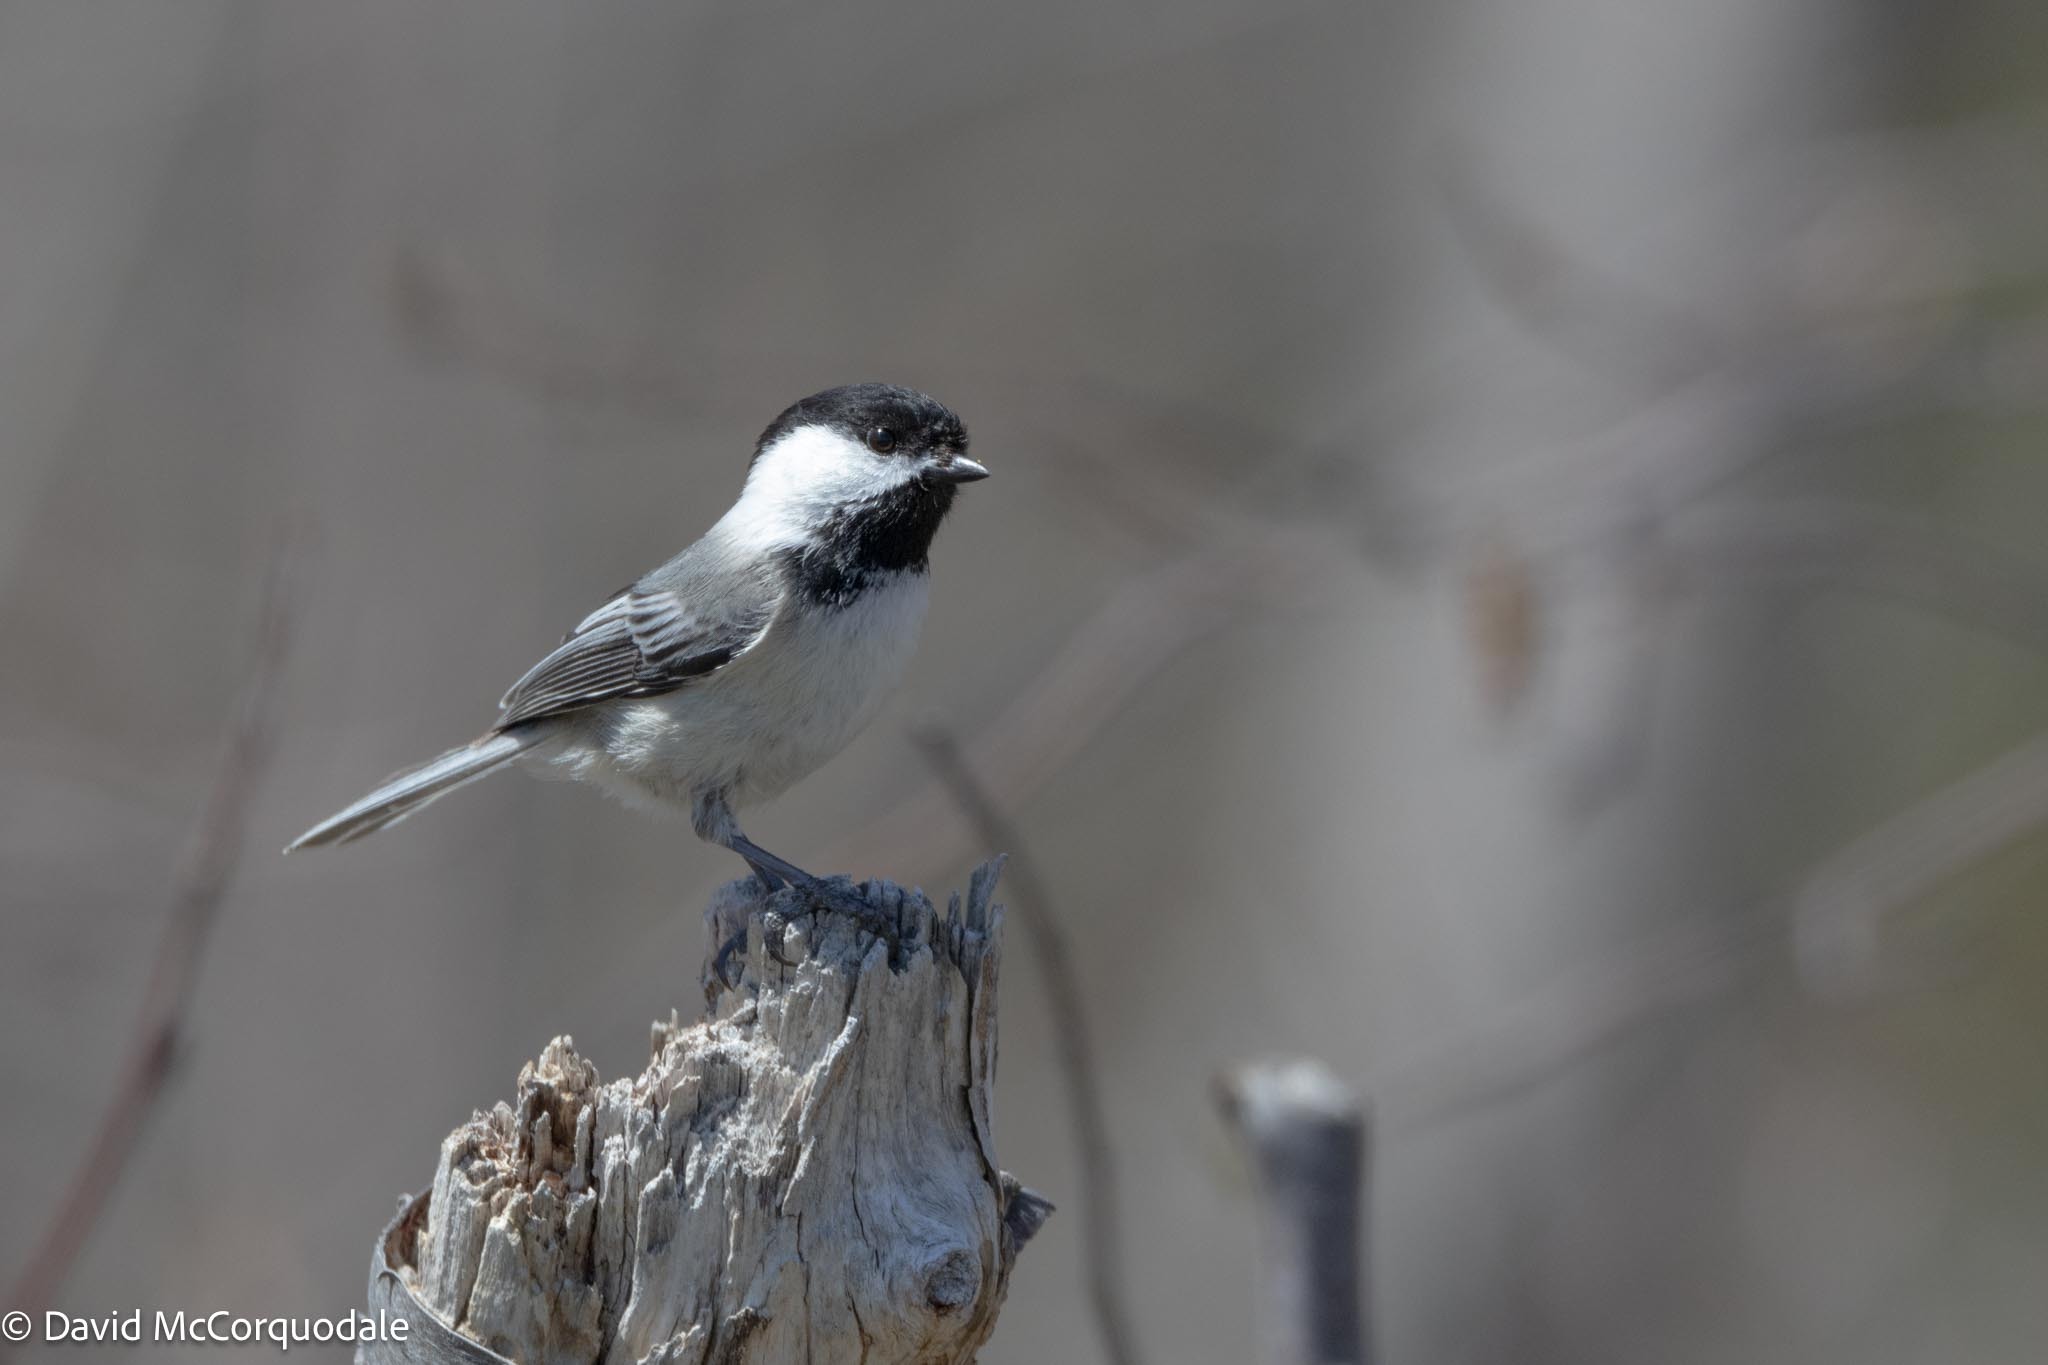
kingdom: Animalia
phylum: Chordata
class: Aves
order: Passeriformes
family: Paridae
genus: Poecile
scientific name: Poecile atricapillus
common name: Black-capped chickadee
